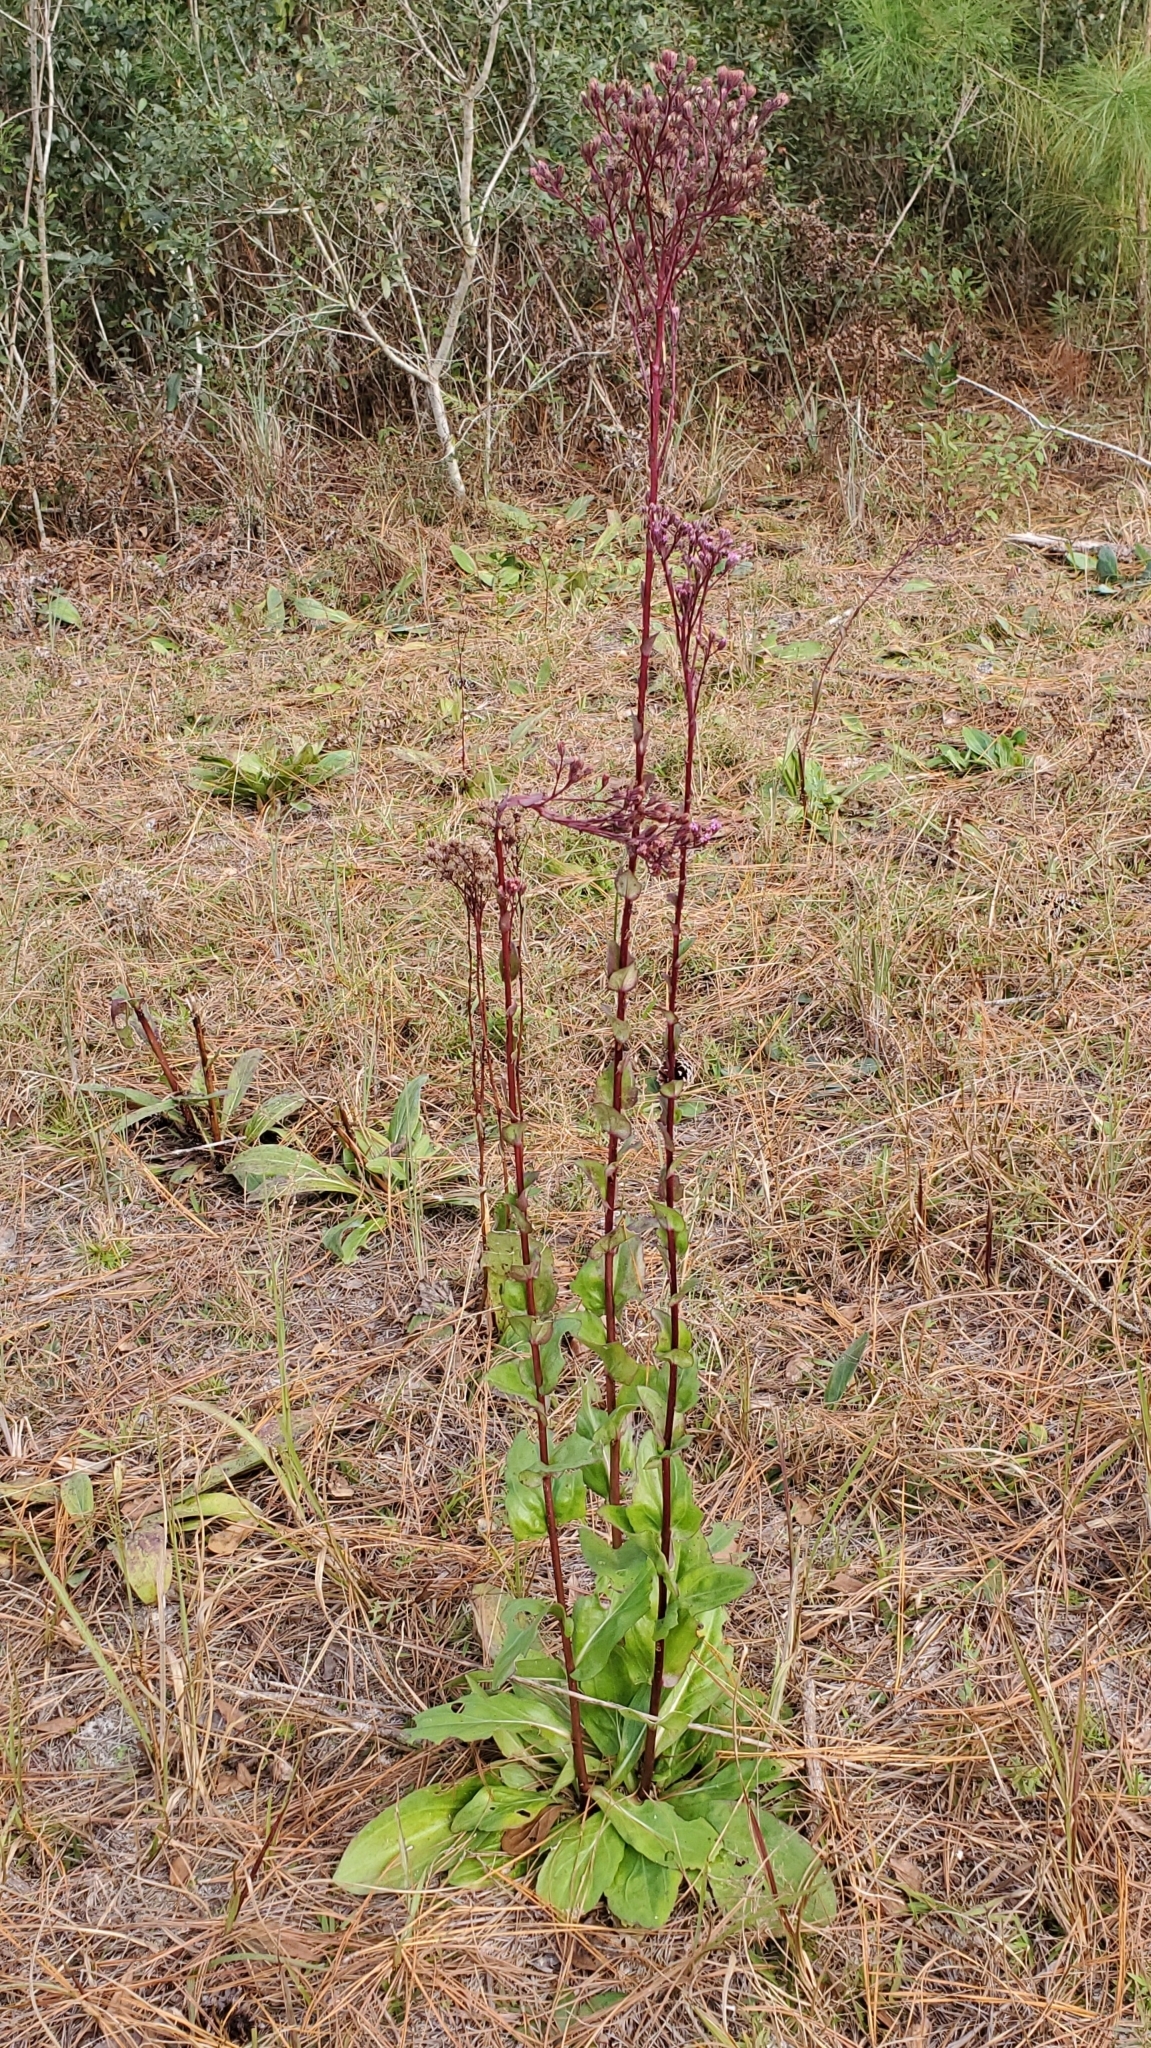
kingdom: Plantae
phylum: Tracheophyta
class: Magnoliopsida
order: Asterales
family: Asteraceae
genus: Carphephorus
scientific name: Carphephorus odoratissimus
